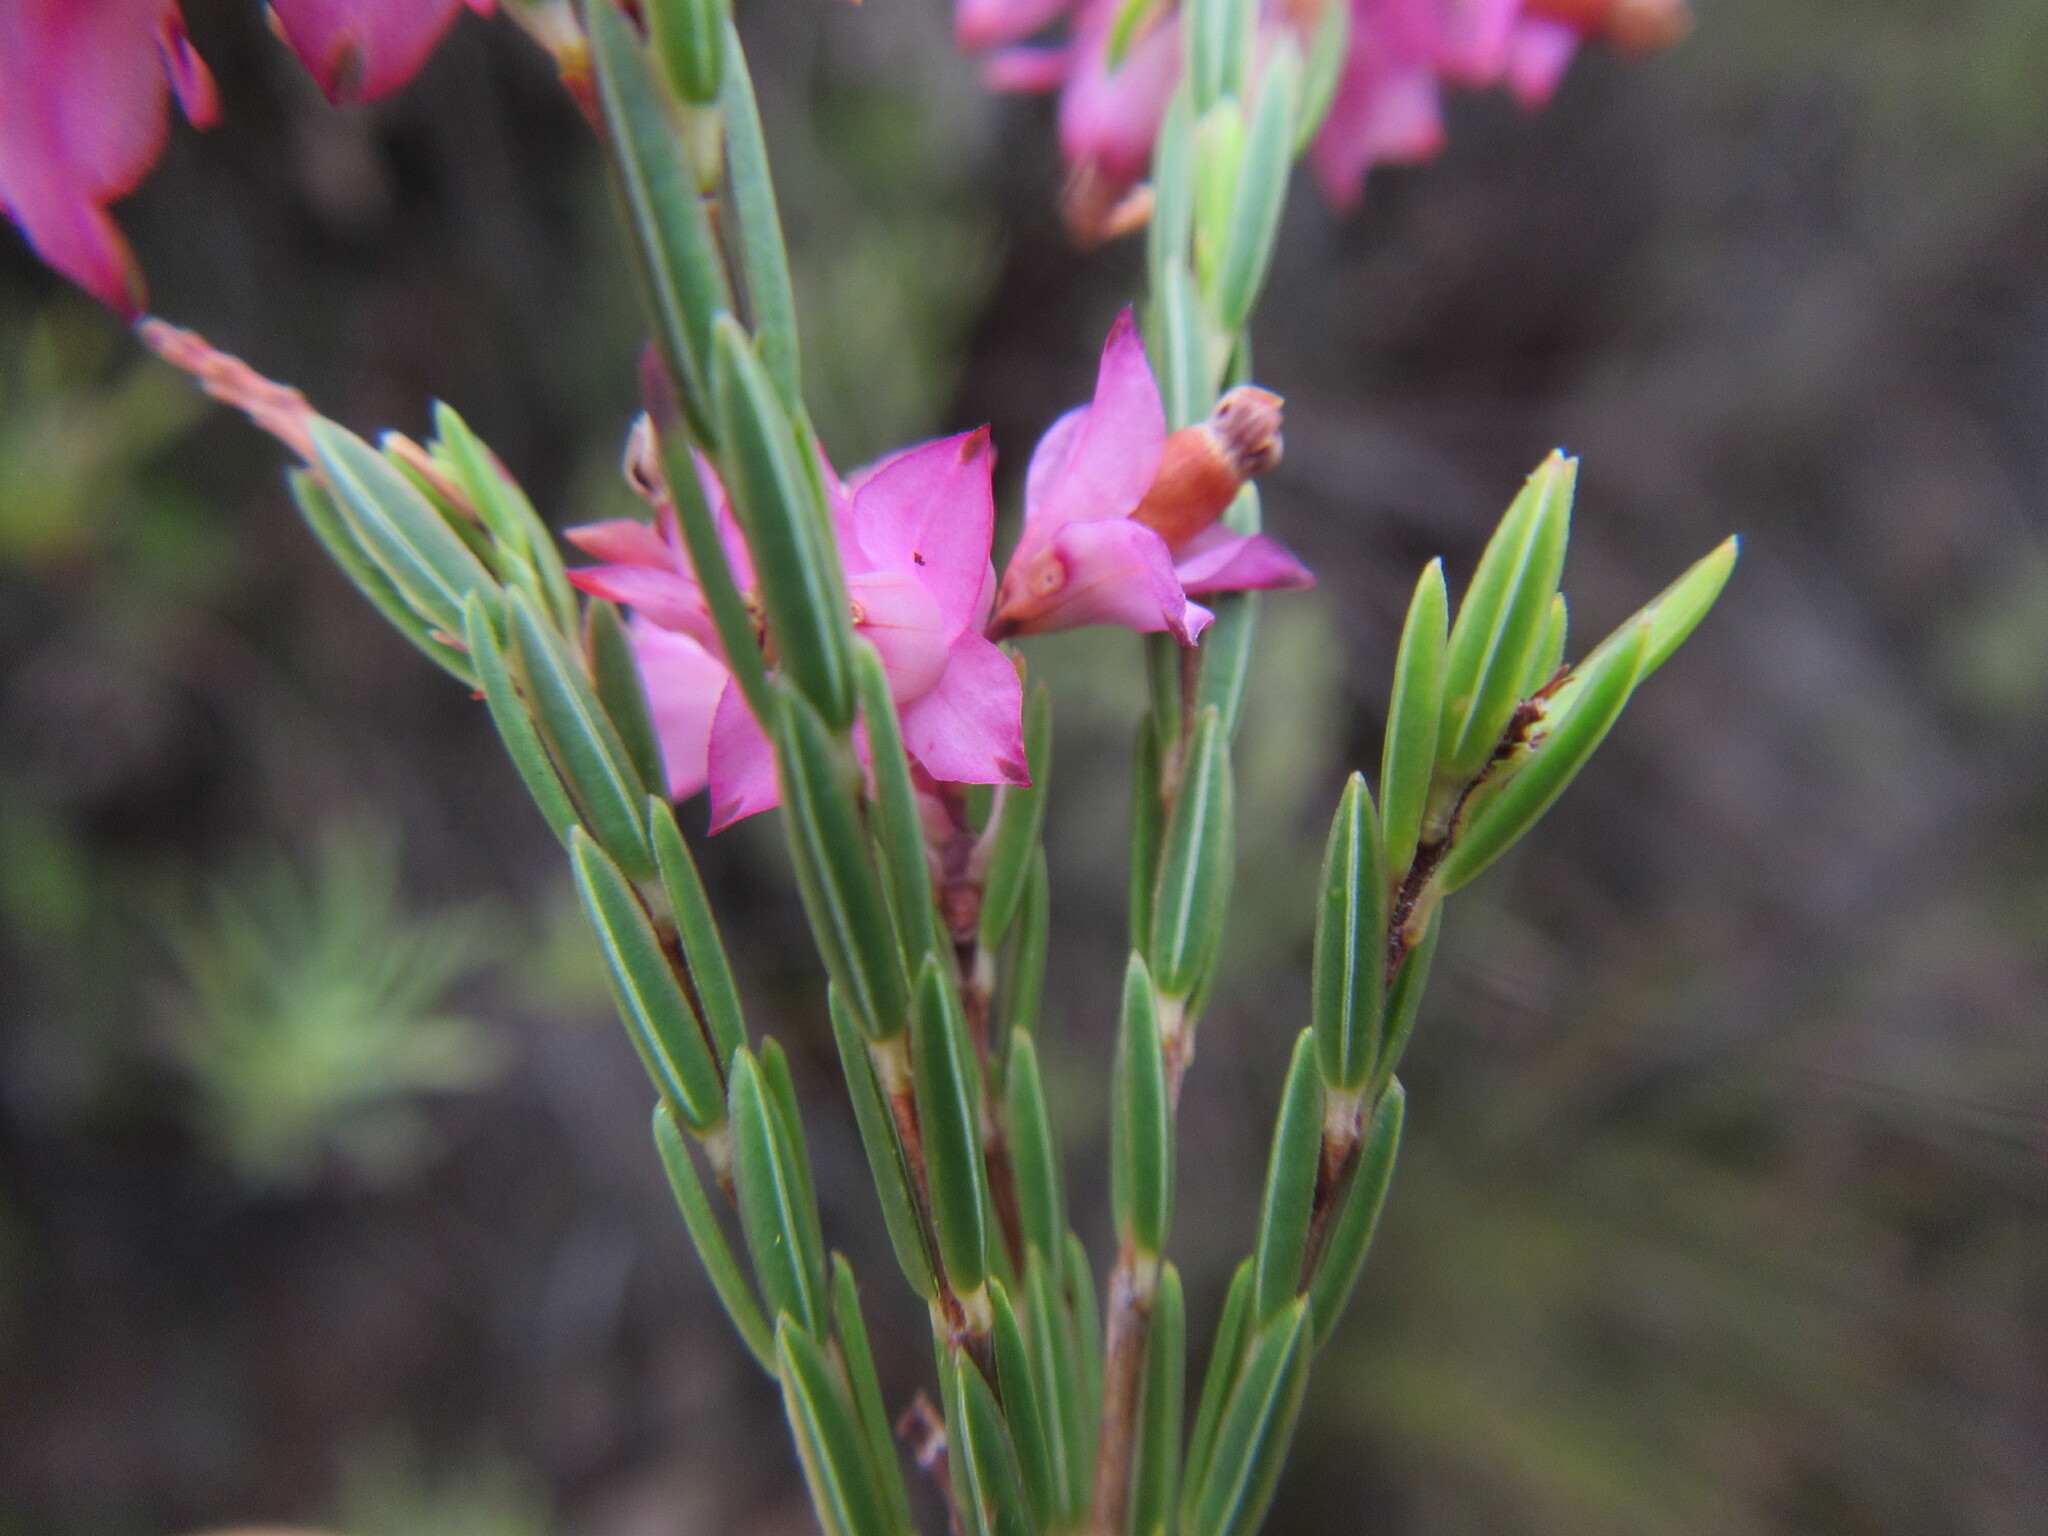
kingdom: Plantae
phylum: Tracheophyta
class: Magnoliopsida
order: Ericales
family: Ericaceae
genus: Erica
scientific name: Erica corifolia
